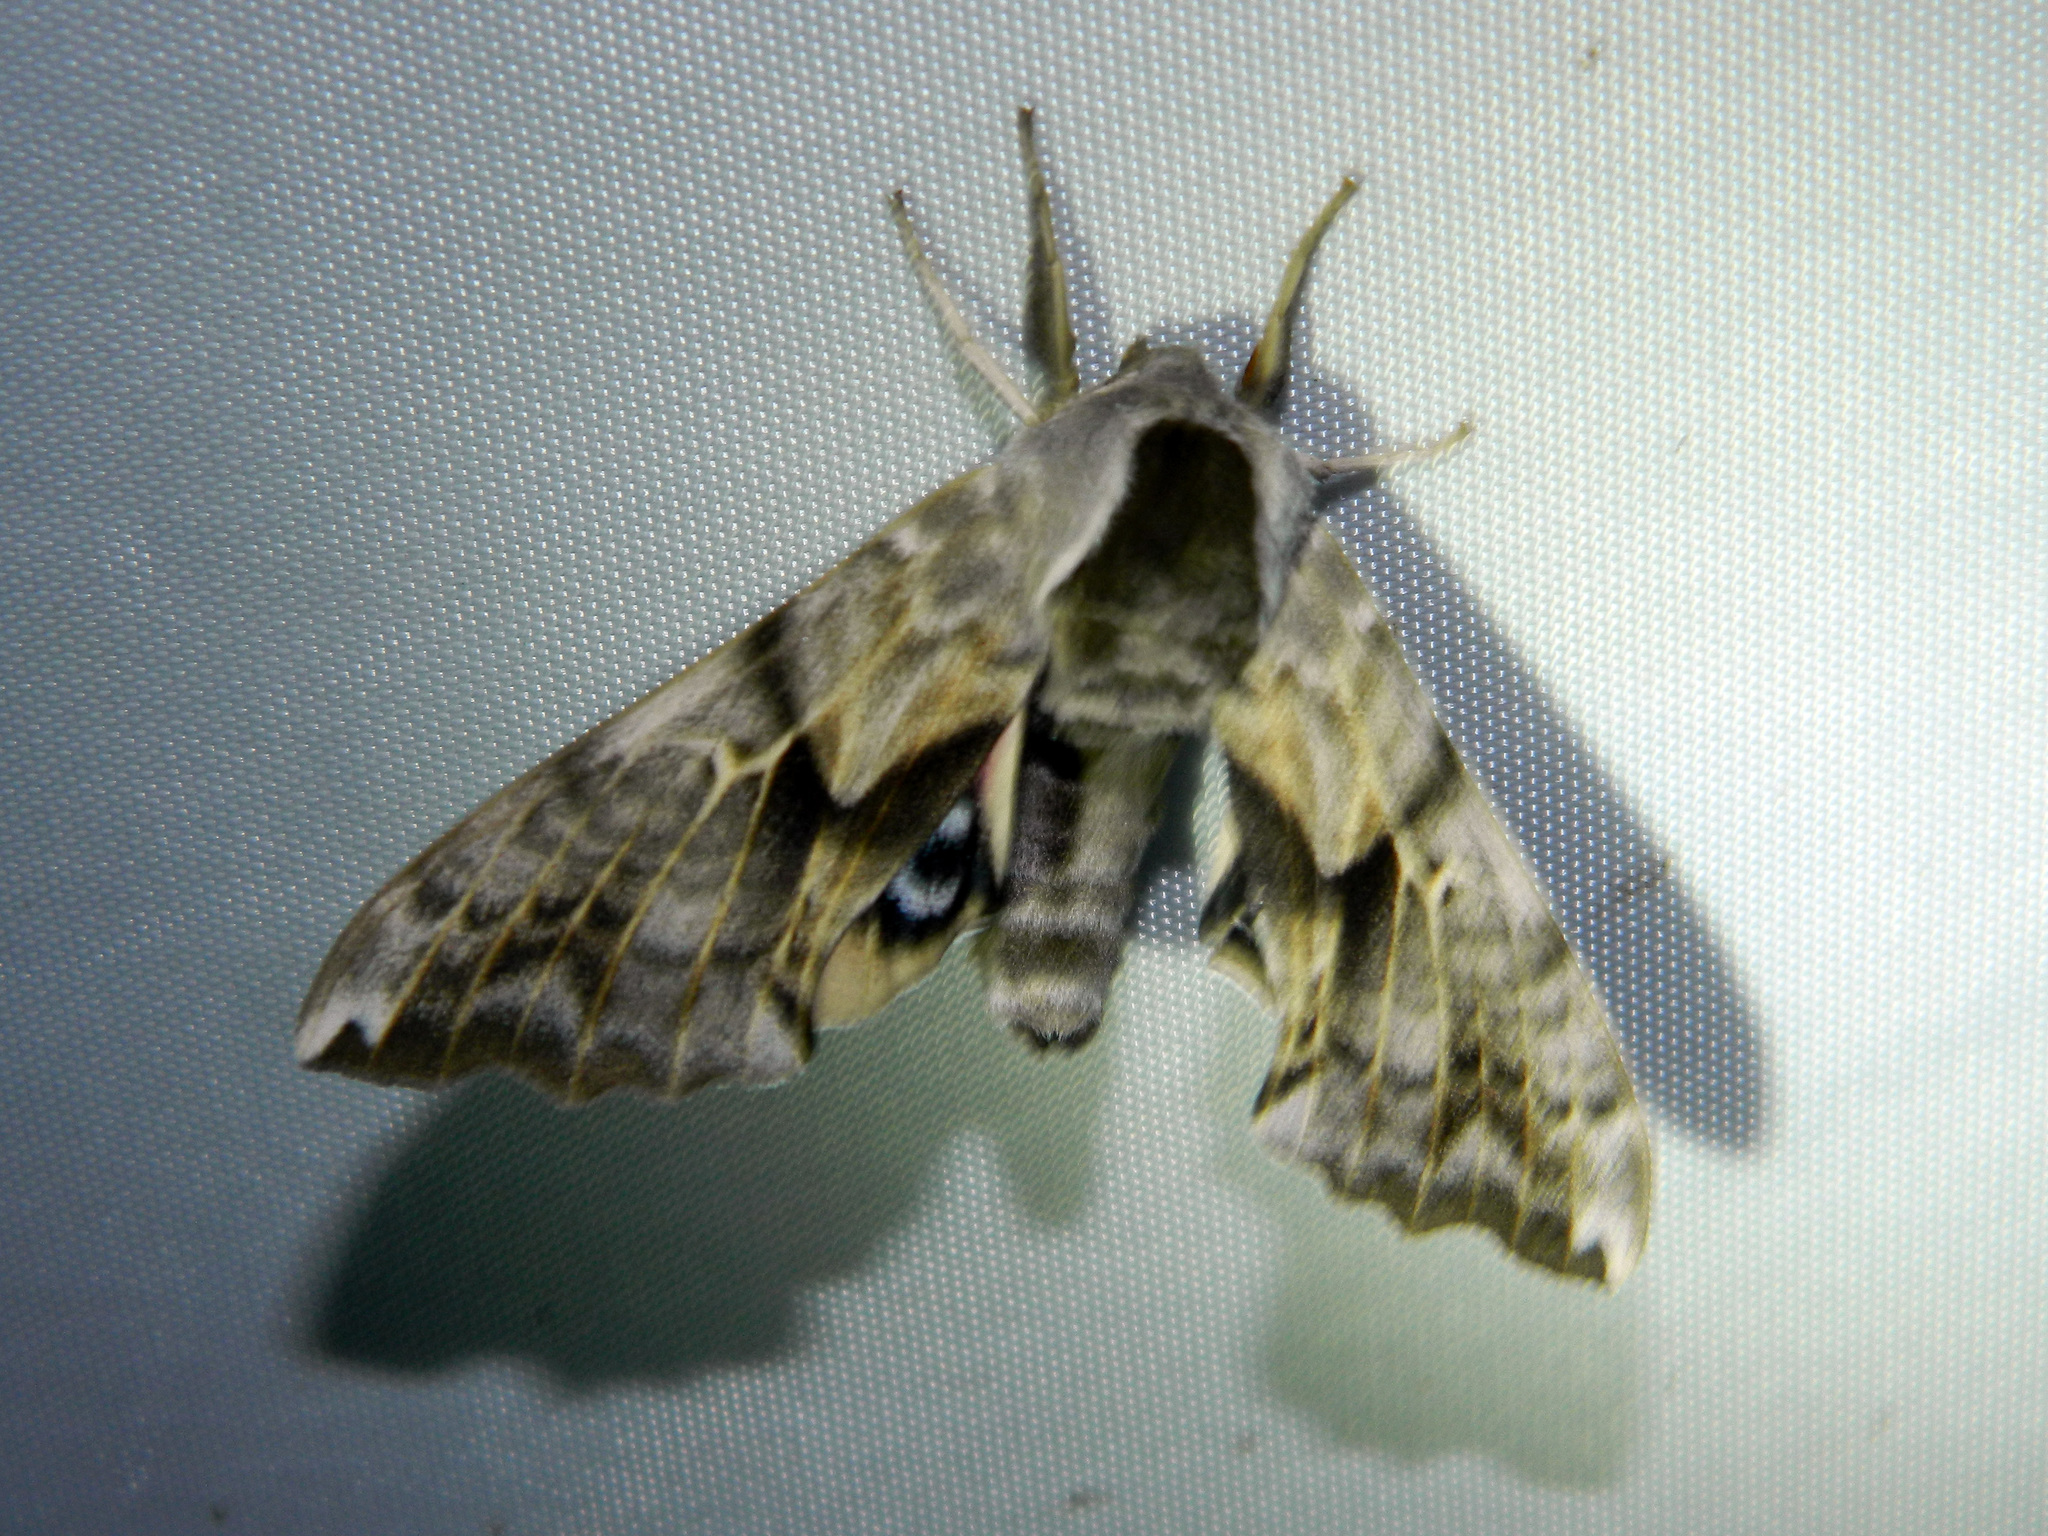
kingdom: Animalia
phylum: Arthropoda
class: Insecta
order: Lepidoptera
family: Sphingidae
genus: Smerinthus
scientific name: Smerinthus cerisyi
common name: Cerisy's sphinx moth
